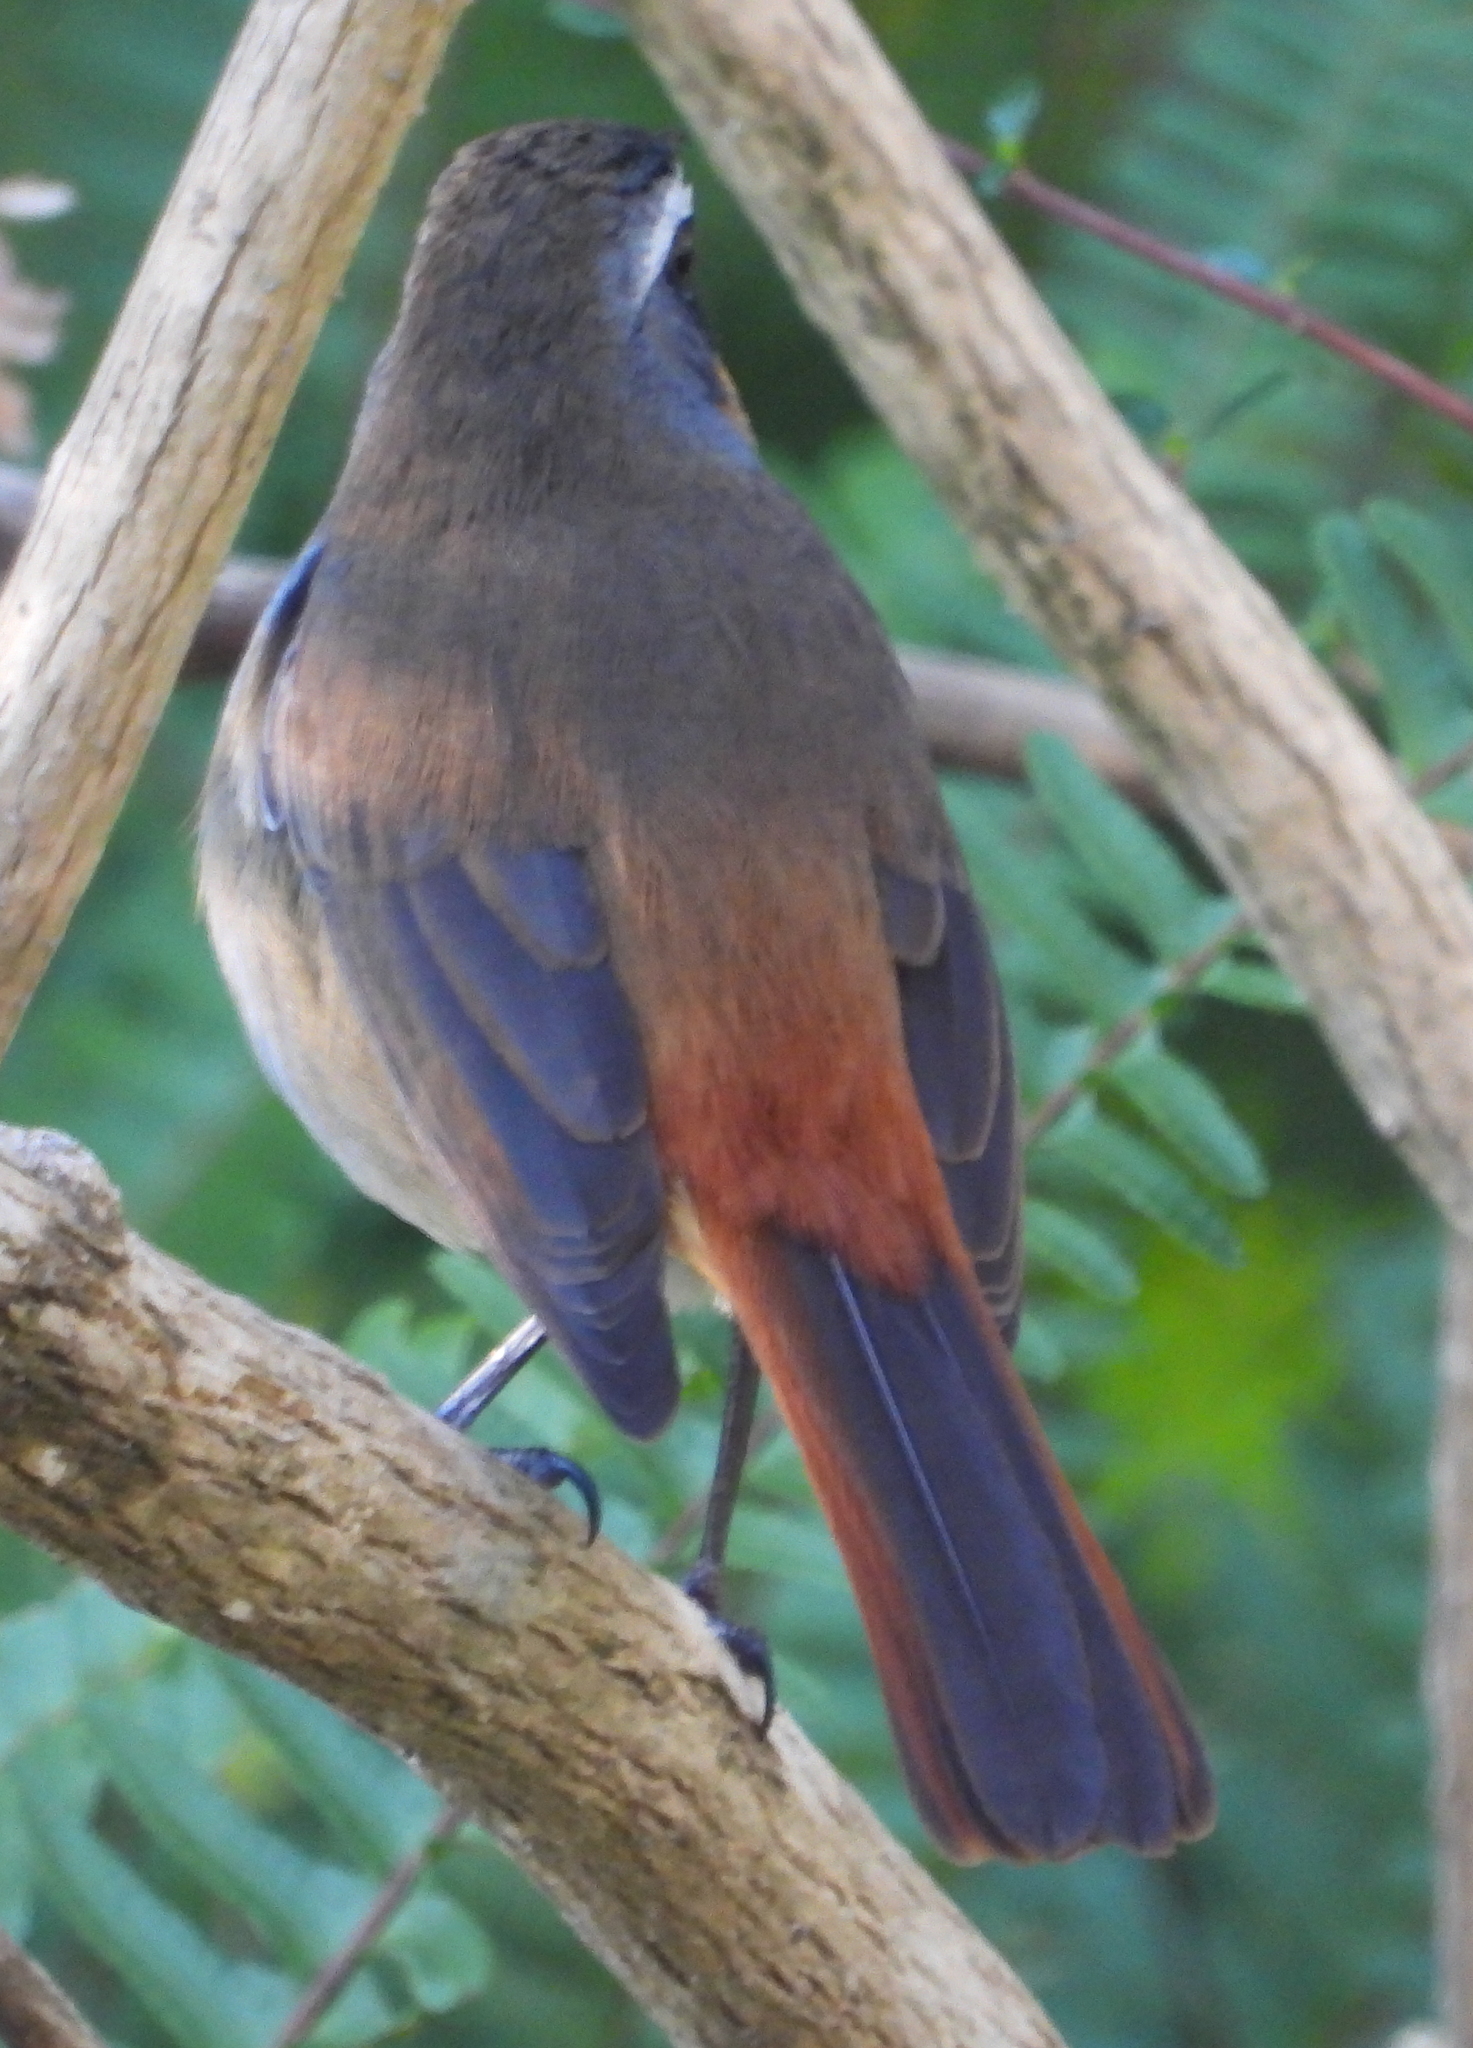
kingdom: Animalia
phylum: Chordata
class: Aves
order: Passeriformes
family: Muscicapidae
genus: Cossypha
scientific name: Cossypha caffra
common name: Cape robin-chat
